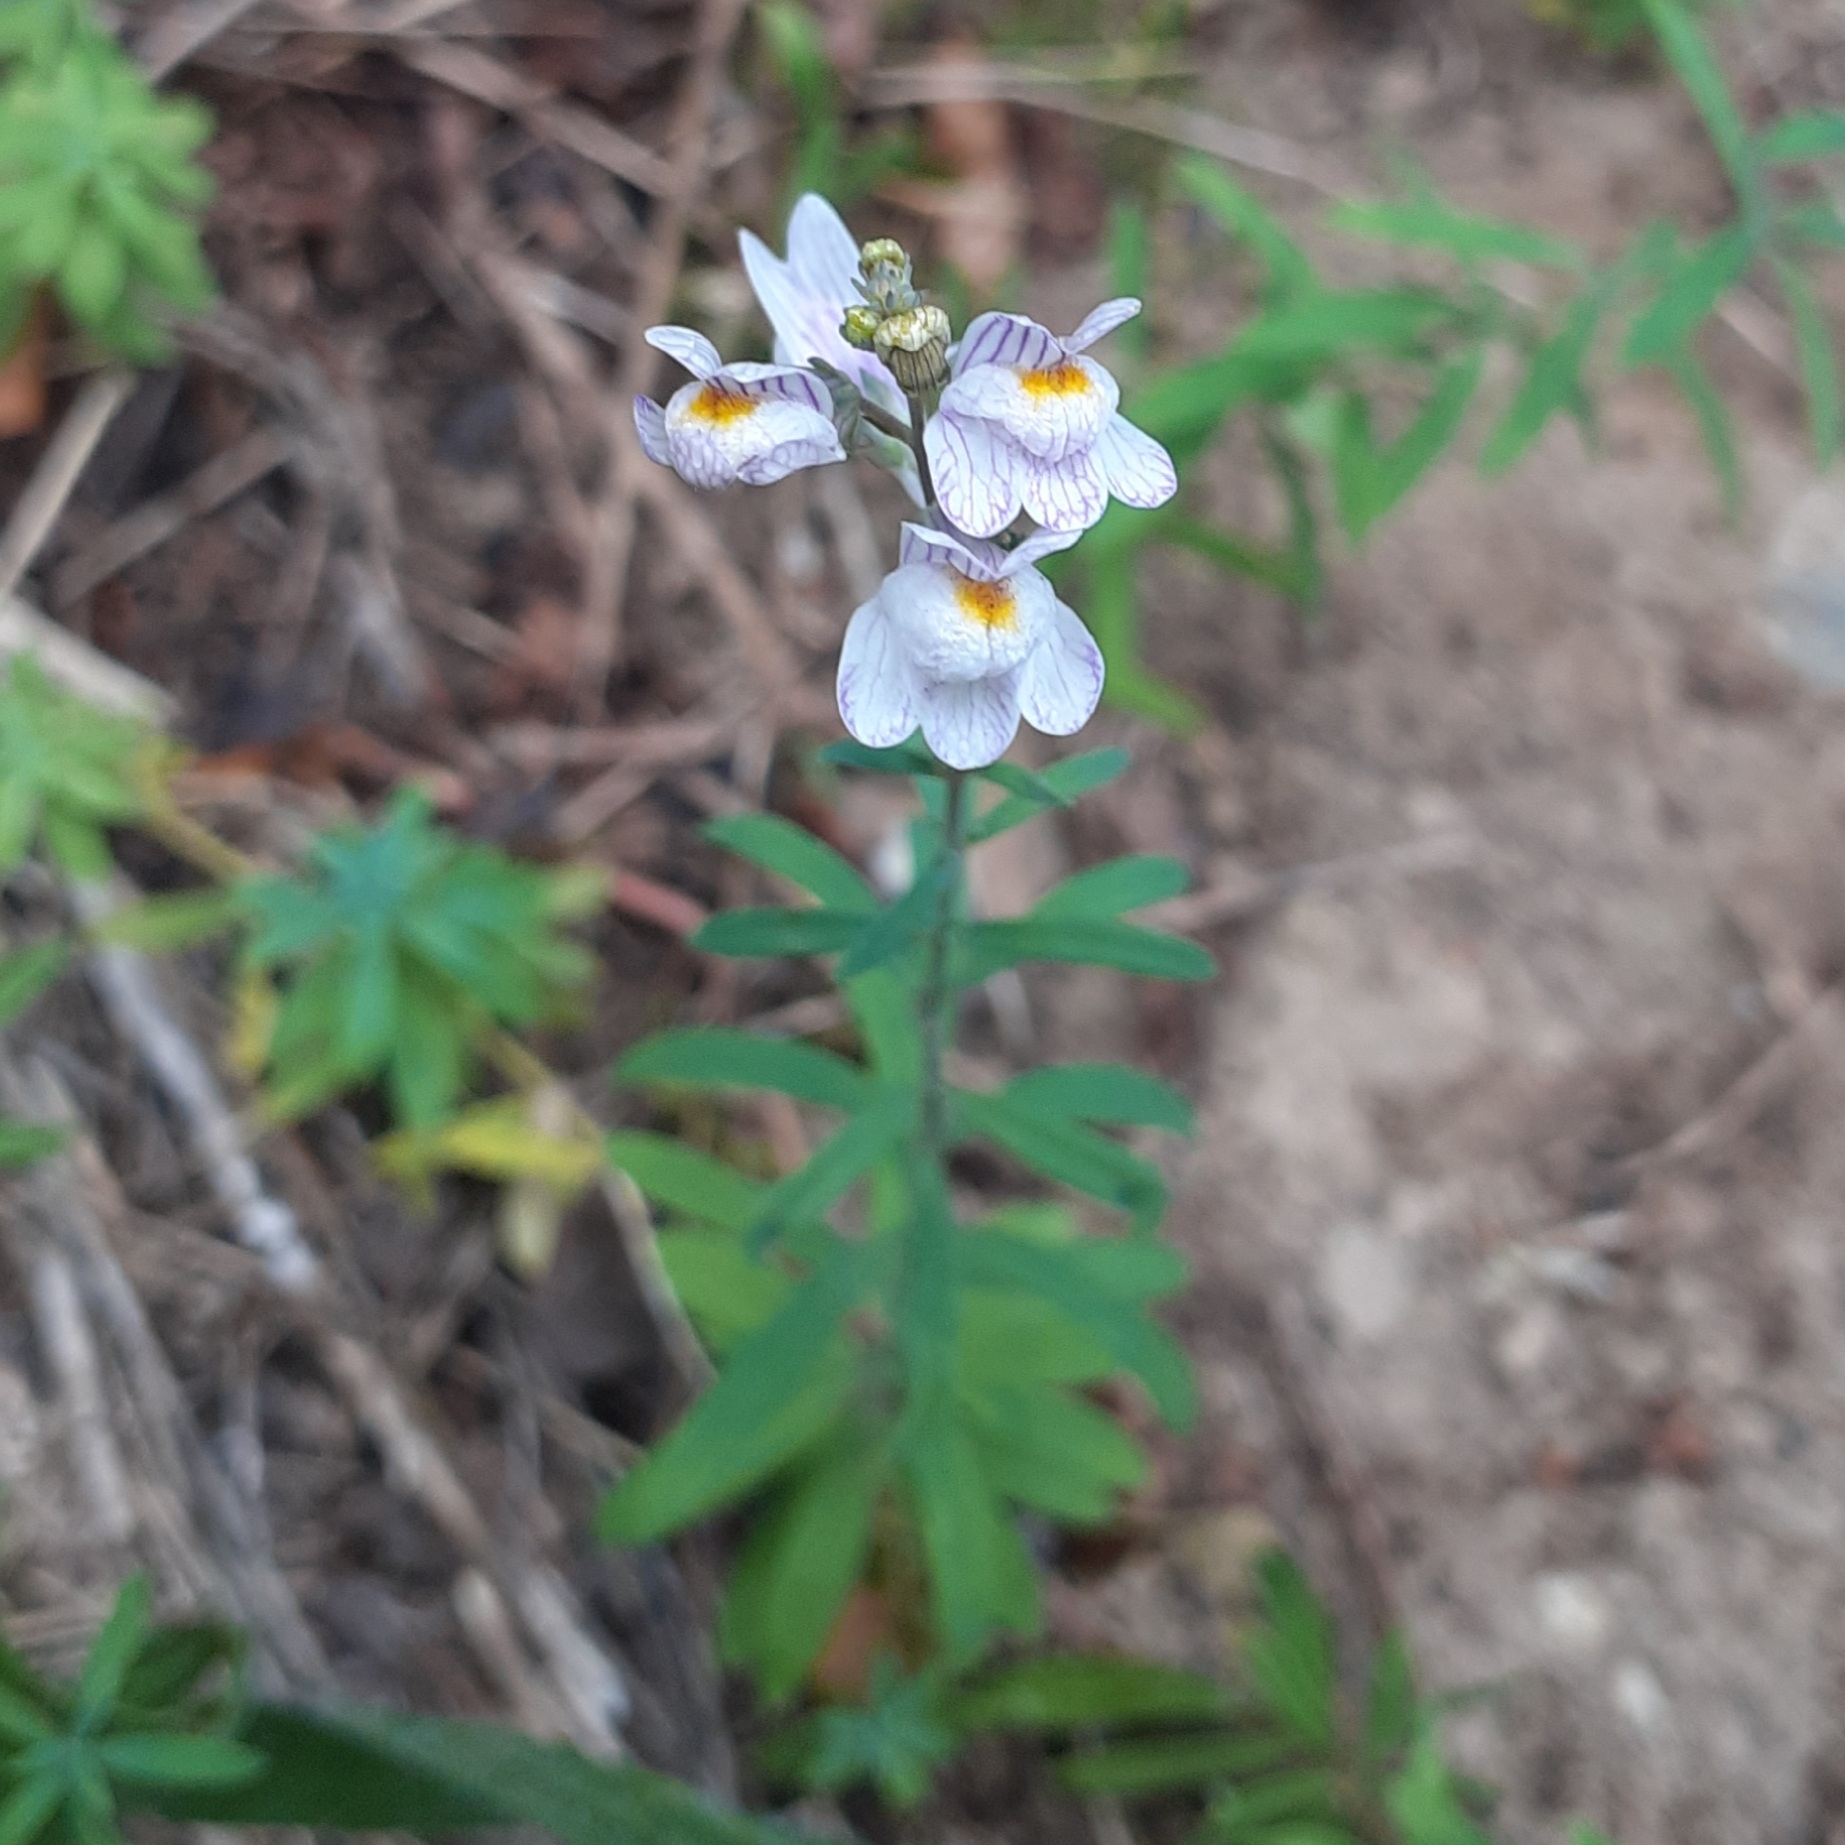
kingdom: Plantae
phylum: Tracheophyta
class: Magnoliopsida
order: Lamiales
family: Plantaginaceae
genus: Linaria
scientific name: Linaria repens
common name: Pale toadflax
